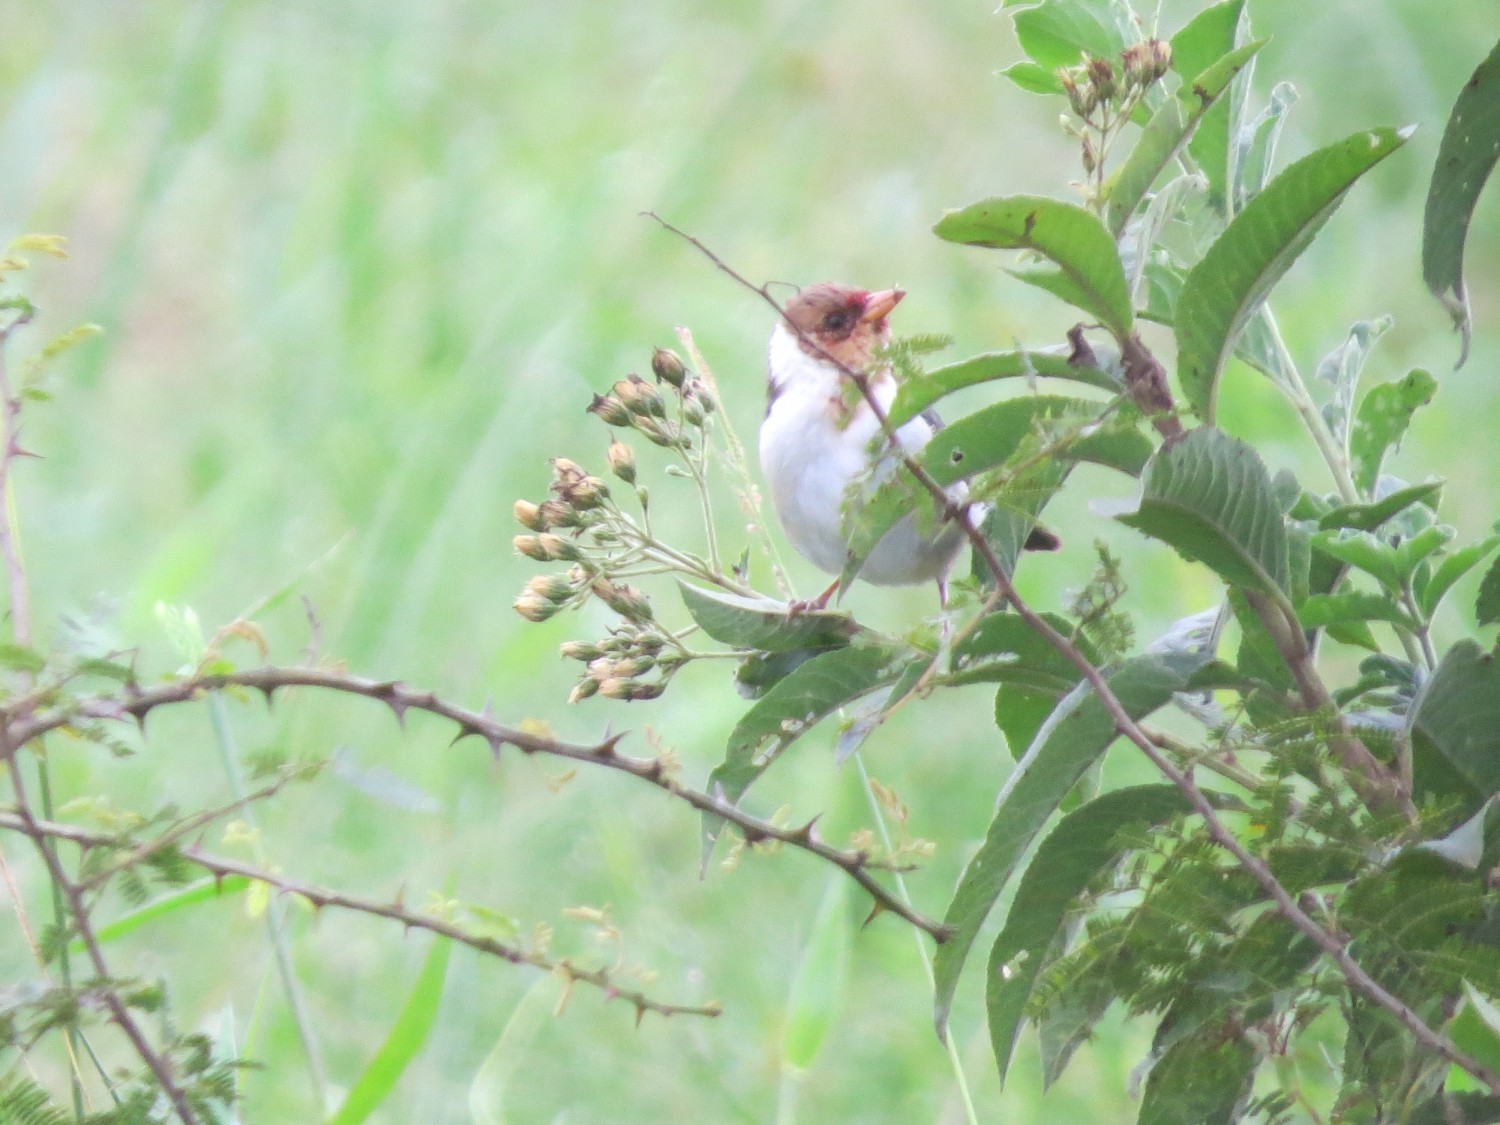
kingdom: Animalia
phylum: Chordata
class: Aves
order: Passeriformes
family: Thraupidae
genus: Paroaria
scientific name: Paroaria capitata
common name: Yellow-billed cardinal
